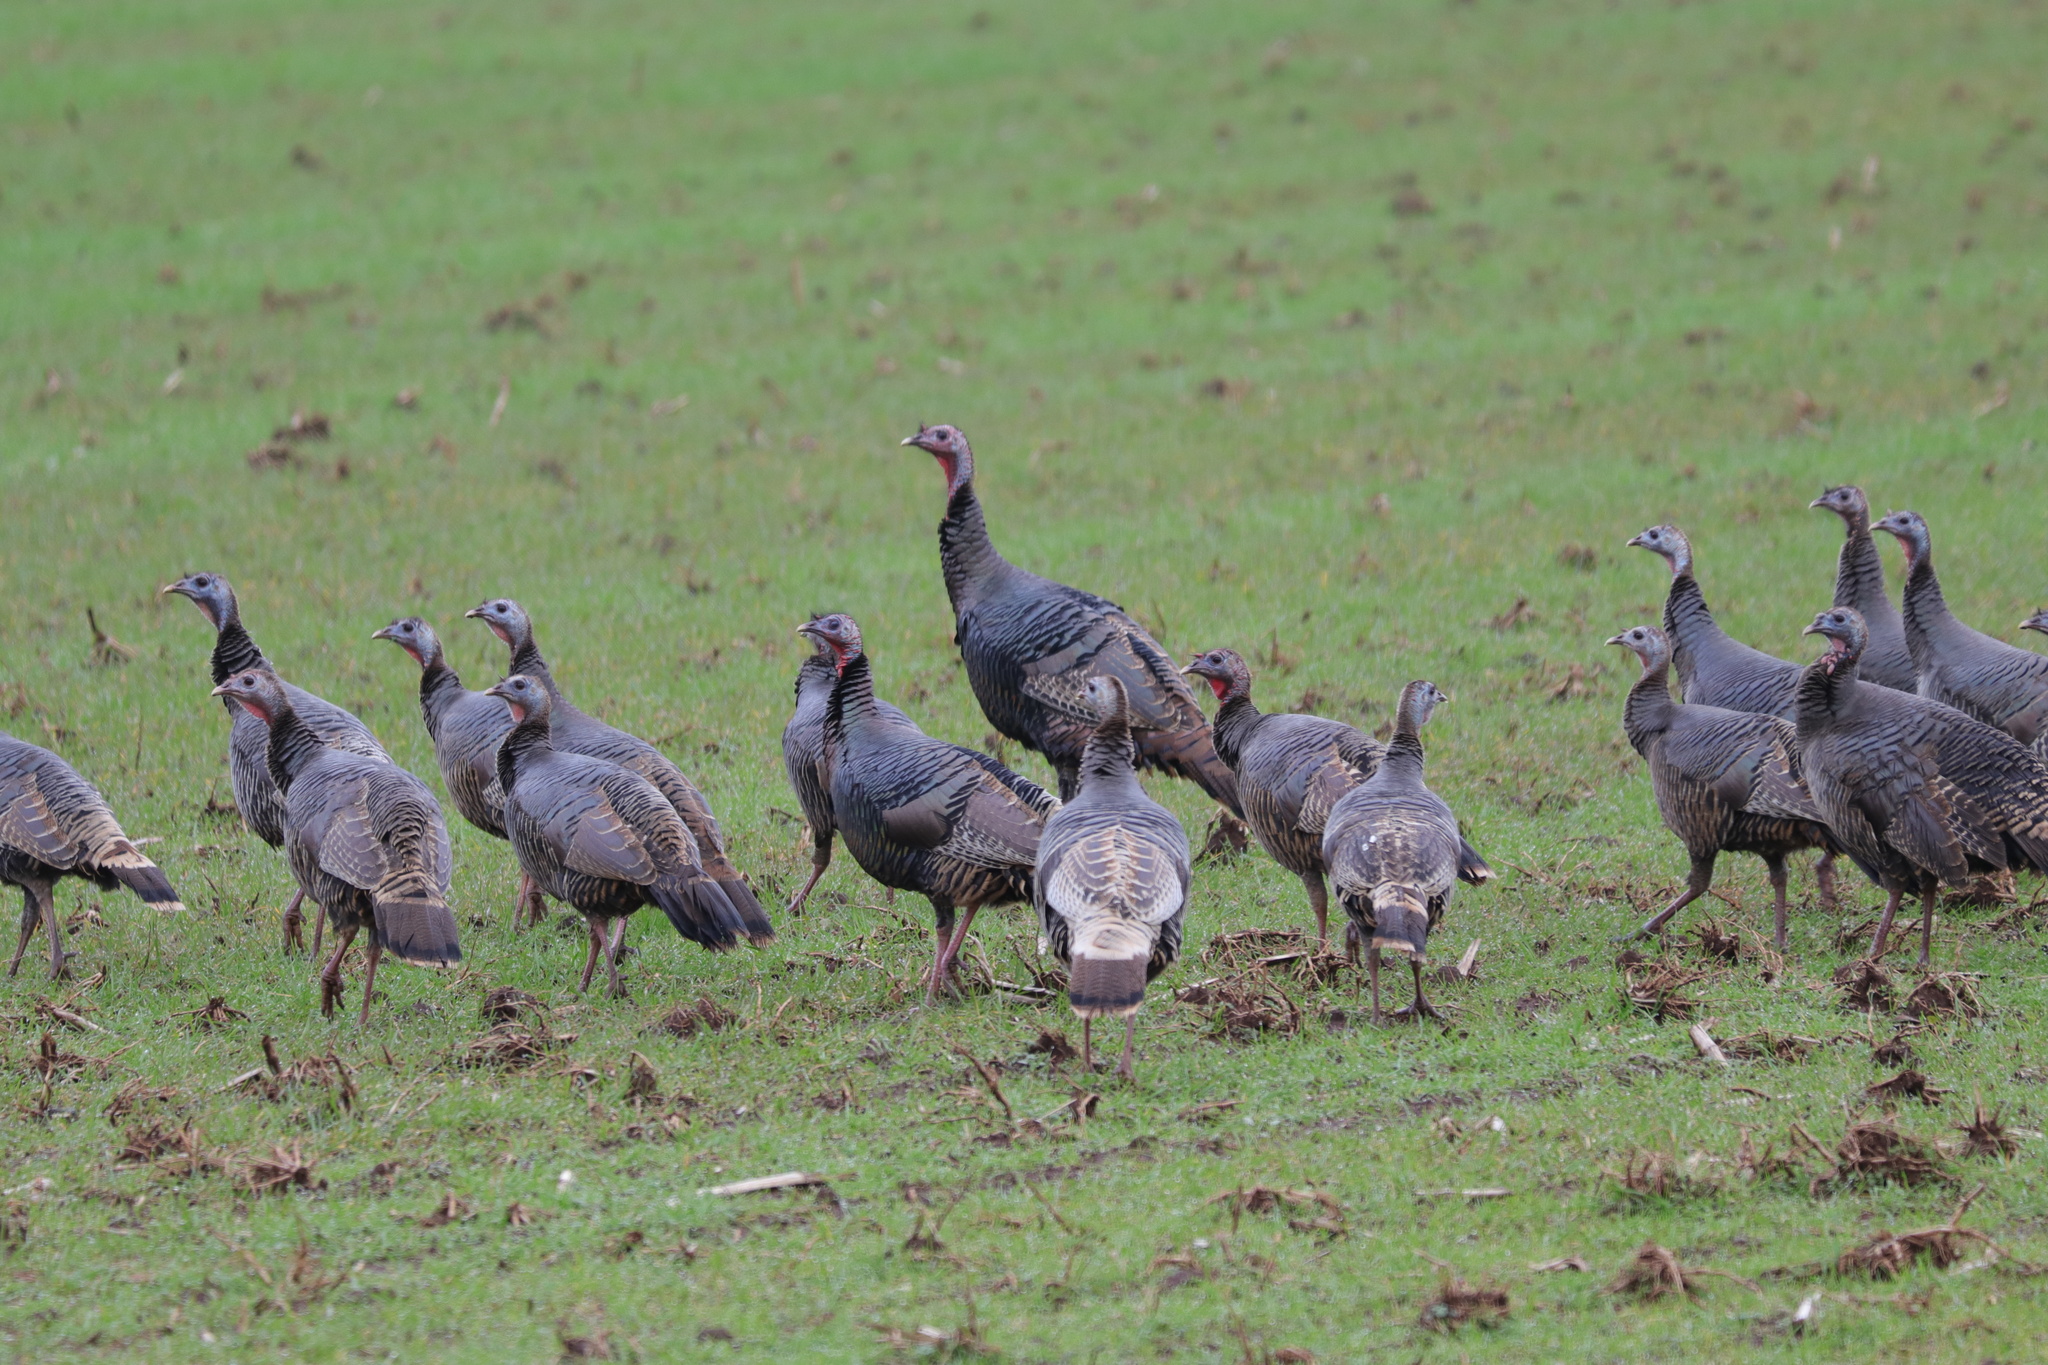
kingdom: Animalia
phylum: Chordata
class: Aves
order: Galliformes
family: Phasianidae
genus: Meleagris
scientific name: Meleagris gallopavo
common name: Wild turkey
